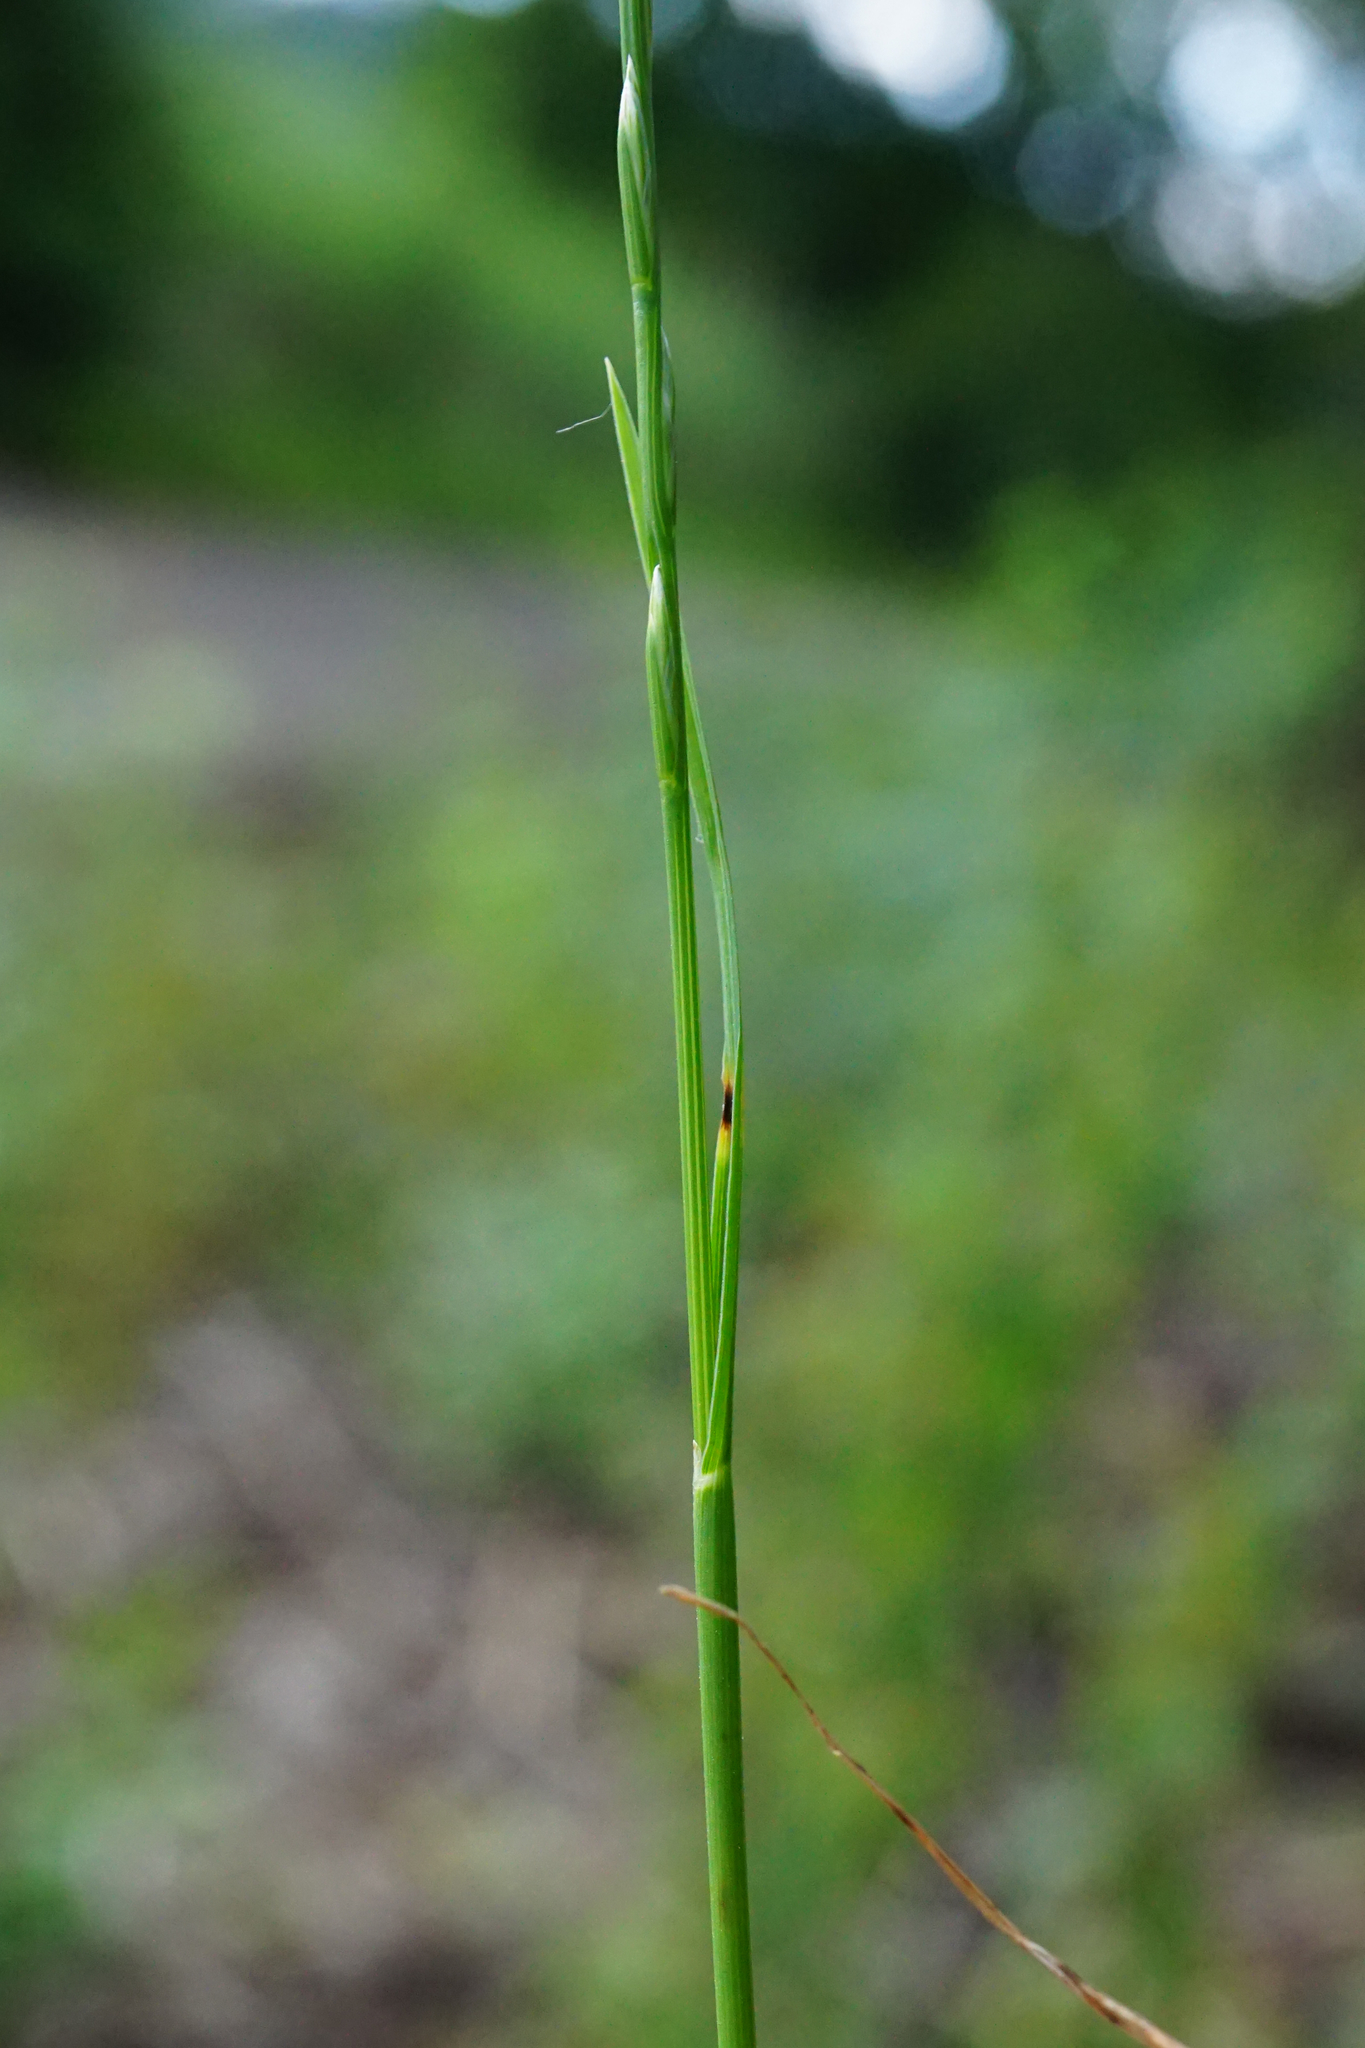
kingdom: Plantae
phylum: Tracheophyta
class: Liliopsida
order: Poales
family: Poaceae
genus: Lolium
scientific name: Lolium perenne
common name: Perennial ryegrass
